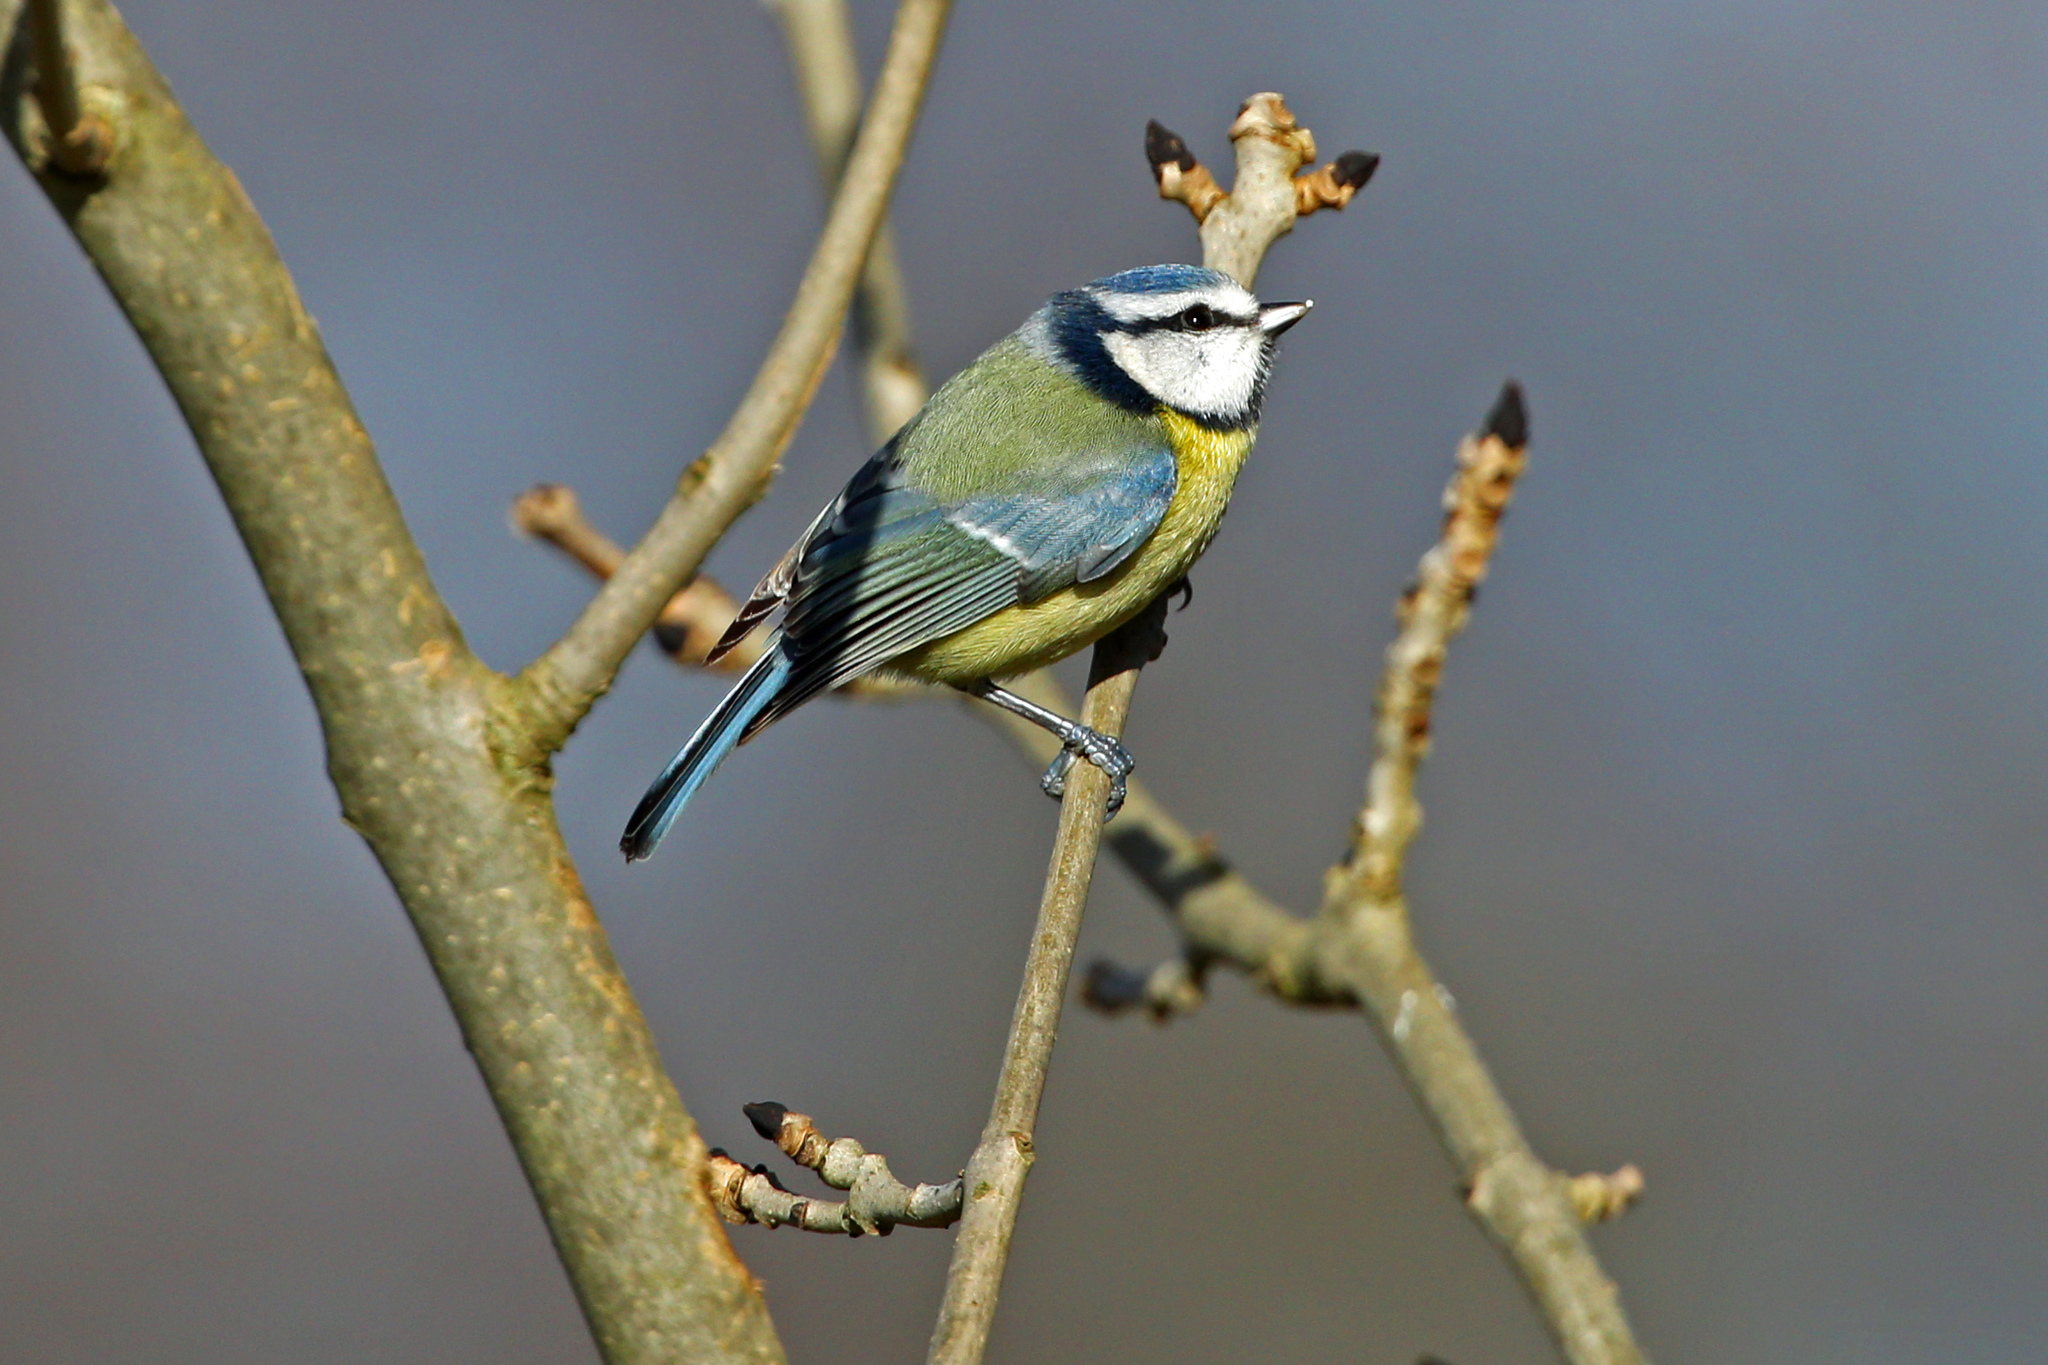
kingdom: Animalia
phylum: Chordata
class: Aves
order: Passeriformes
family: Paridae
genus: Cyanistes
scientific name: Cyanistes caeruleus
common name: Eurasian blue tit
